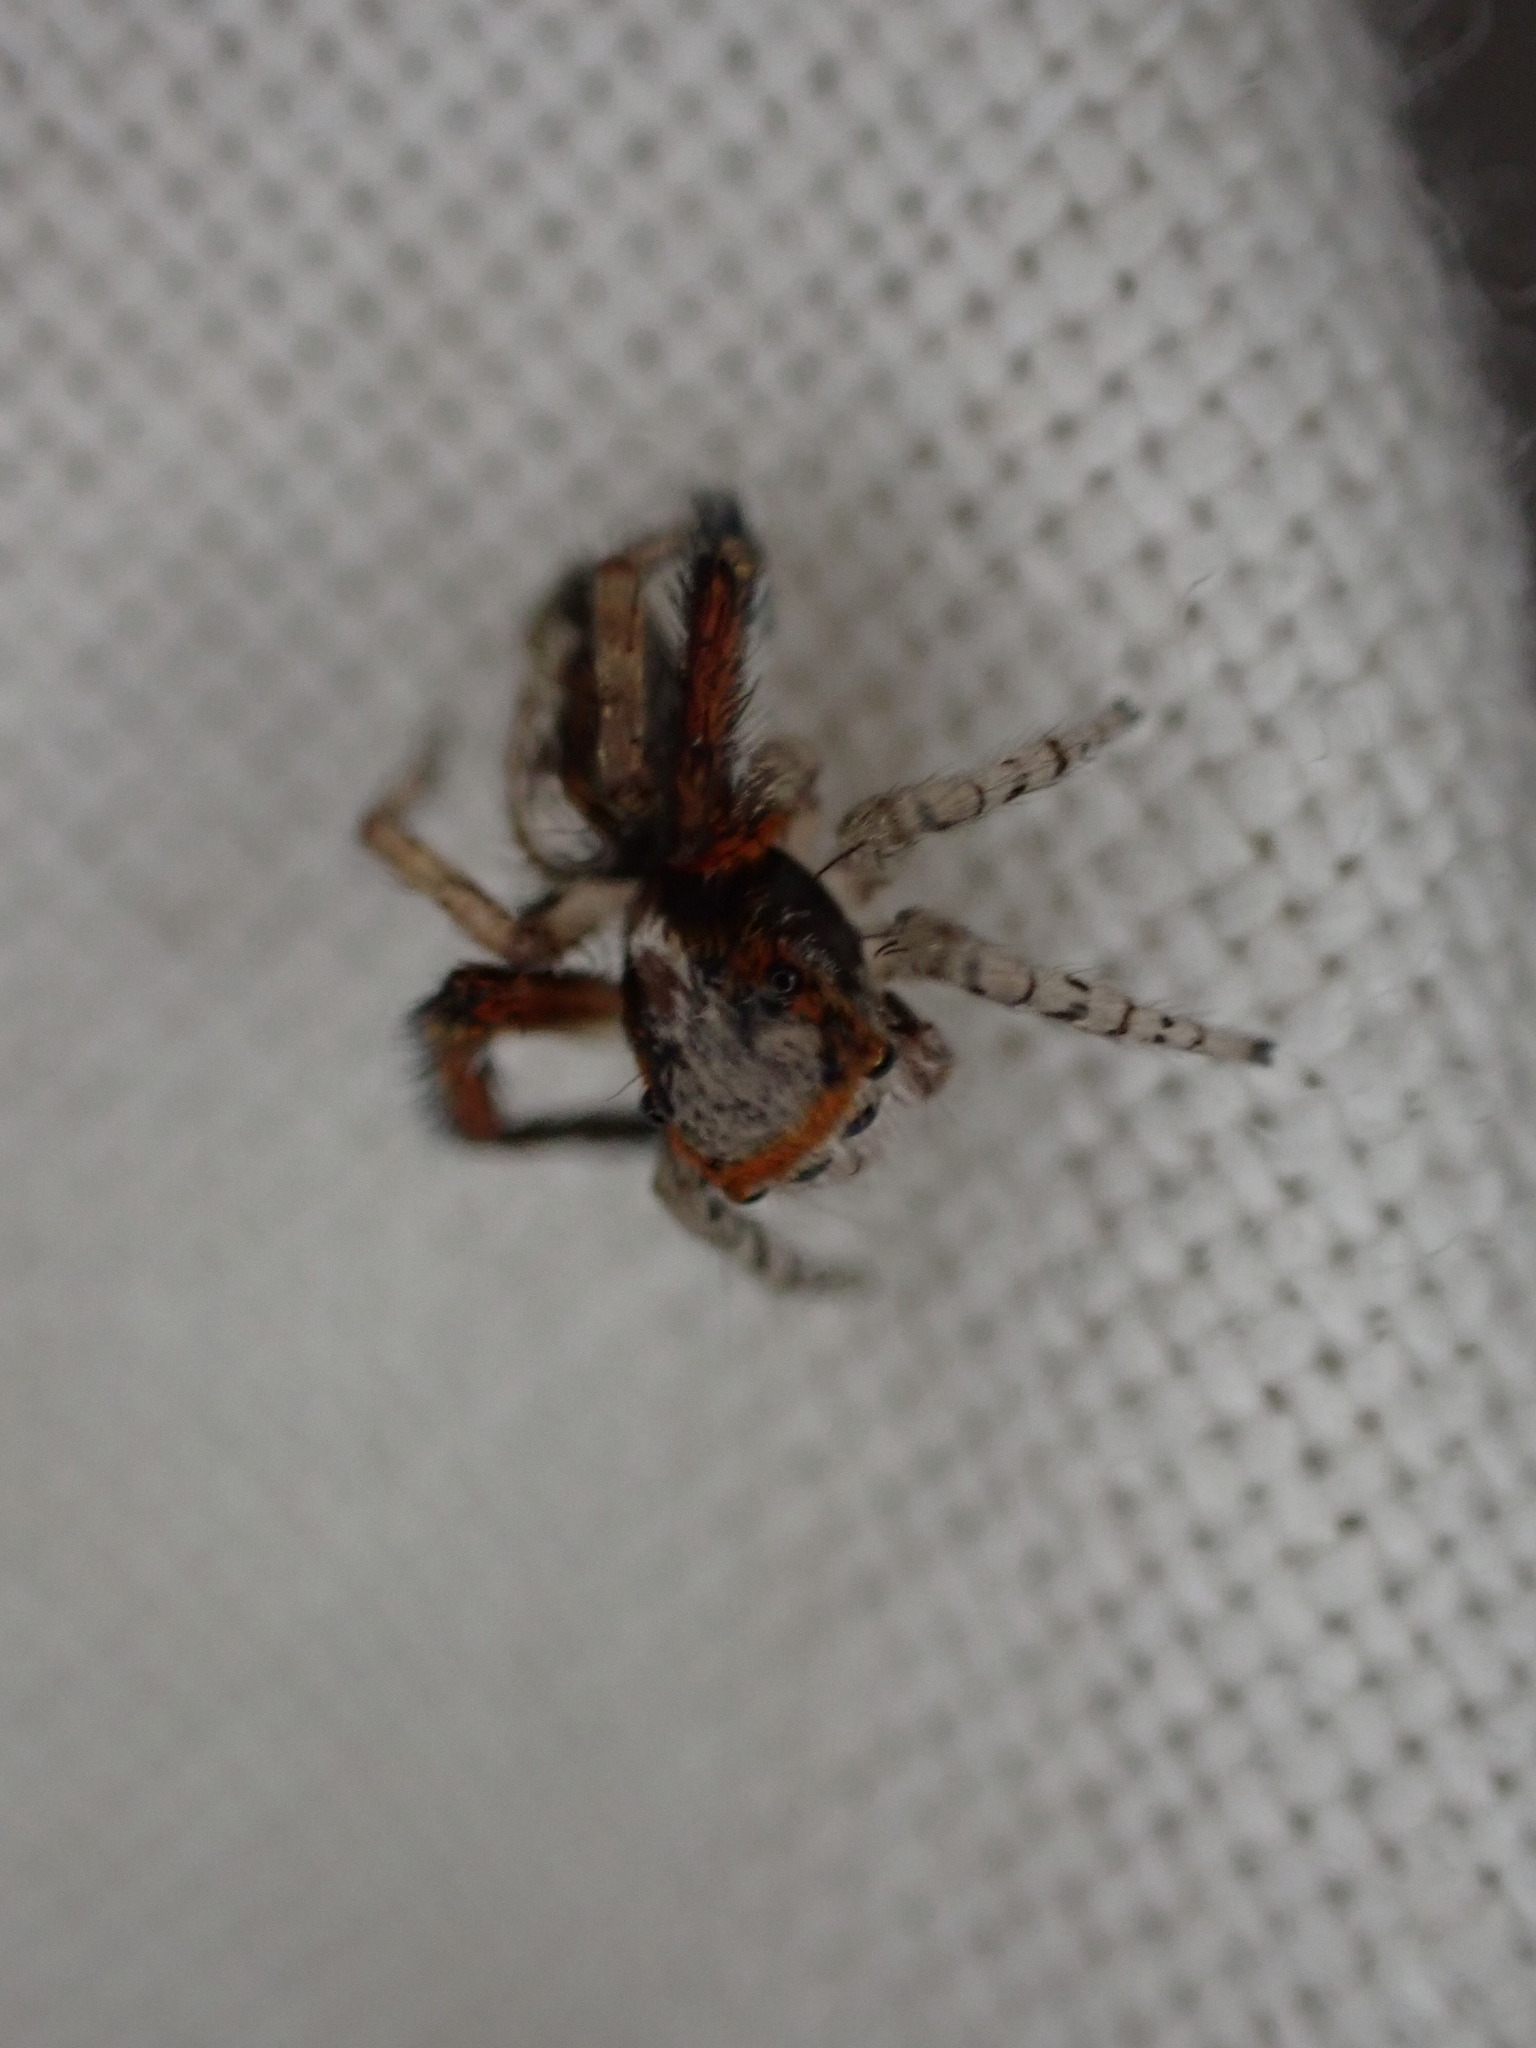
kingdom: Animalia
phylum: Arthropoda
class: Arachnida
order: Araneae
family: Salticidae
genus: Saitis
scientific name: Saitis barbipes
